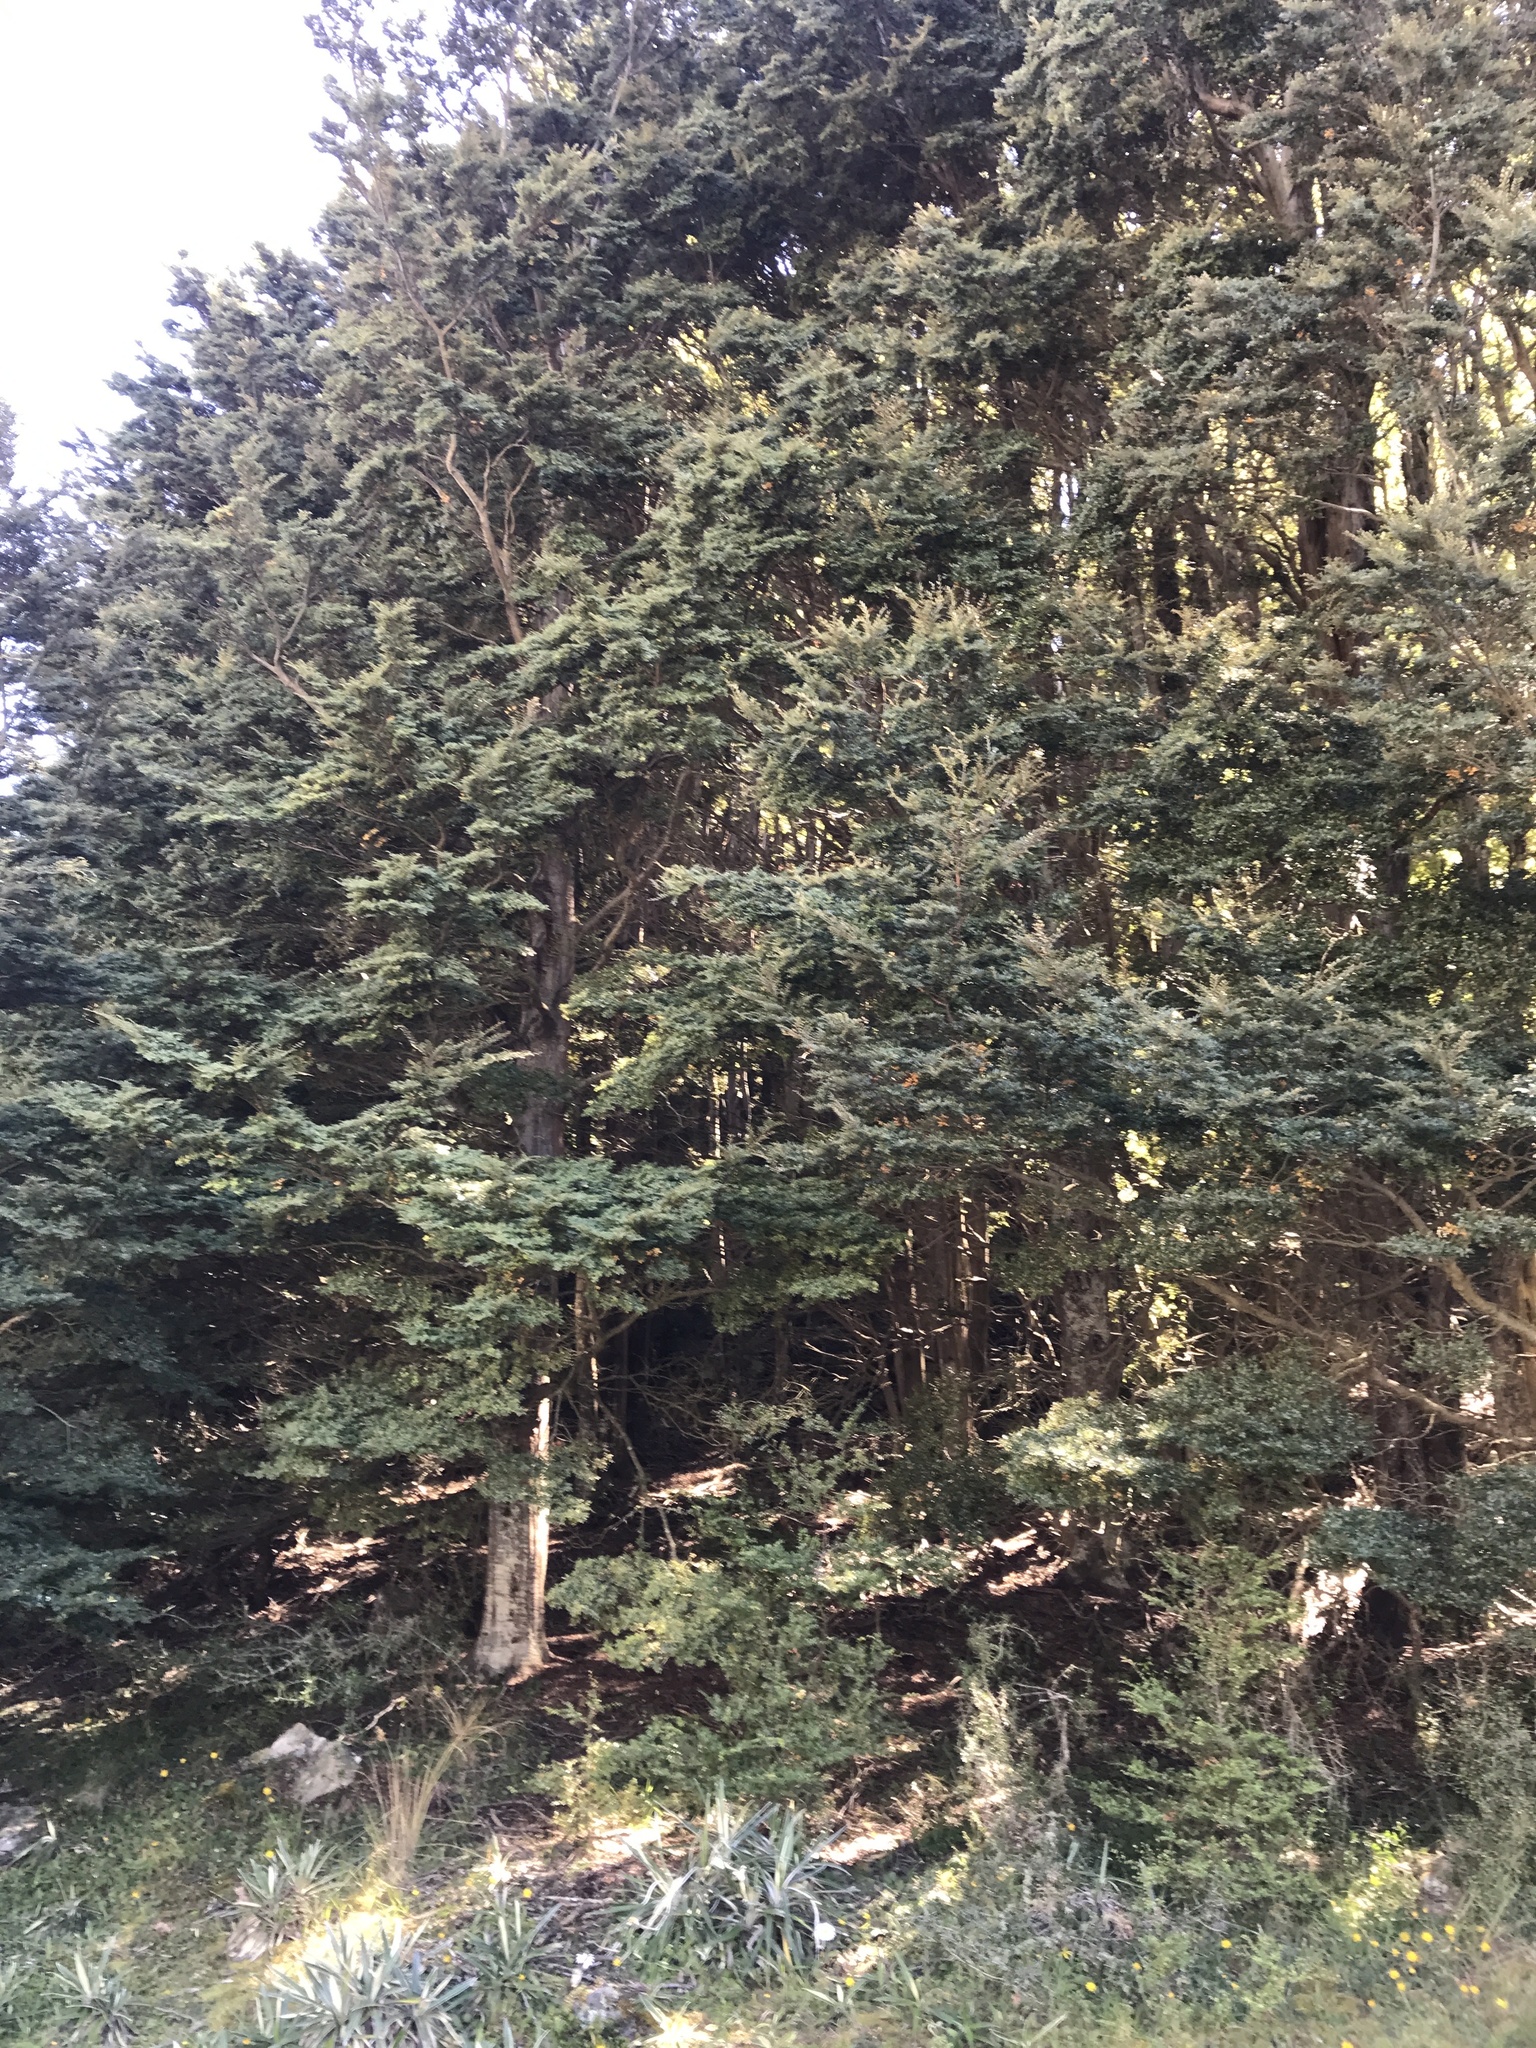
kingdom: Plantae
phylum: Tracheophyta
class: Magnoliopsida
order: Fagales
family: Nothofagaceae
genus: Nothofagus
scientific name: Nothofagus cliffortioides
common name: Mountain beech
